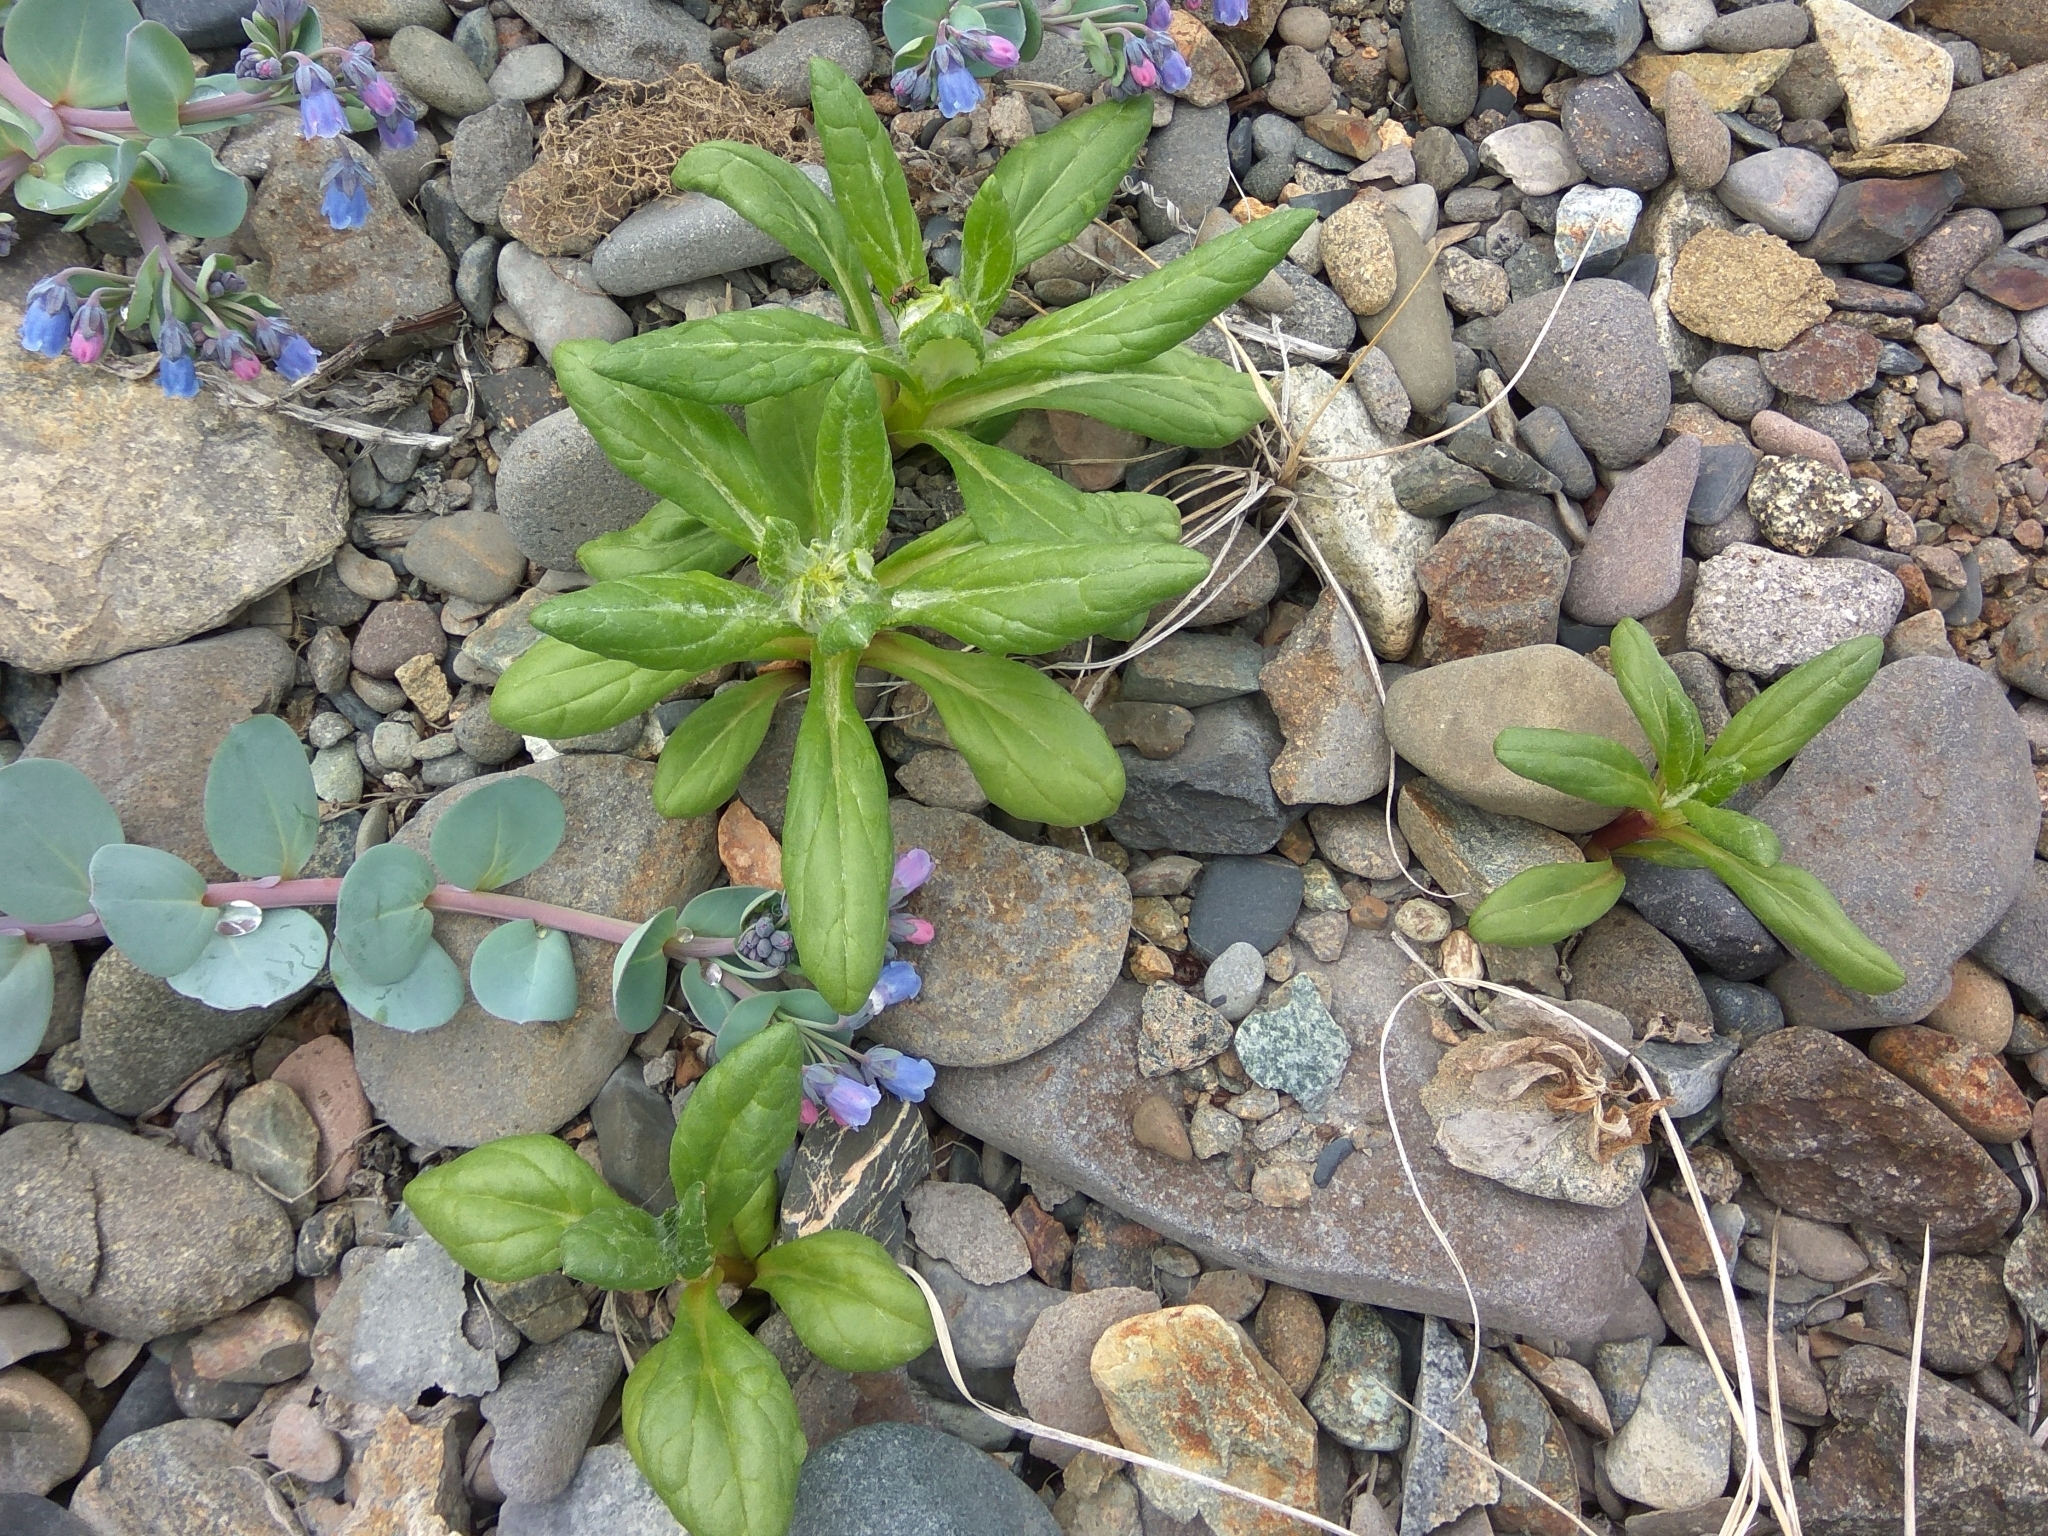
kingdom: Plantae
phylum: Tracheophyta
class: Magnoliopsida
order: Asterales
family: Asteraceae
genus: Jacobaea
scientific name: Jacobaea pseudoarnica
